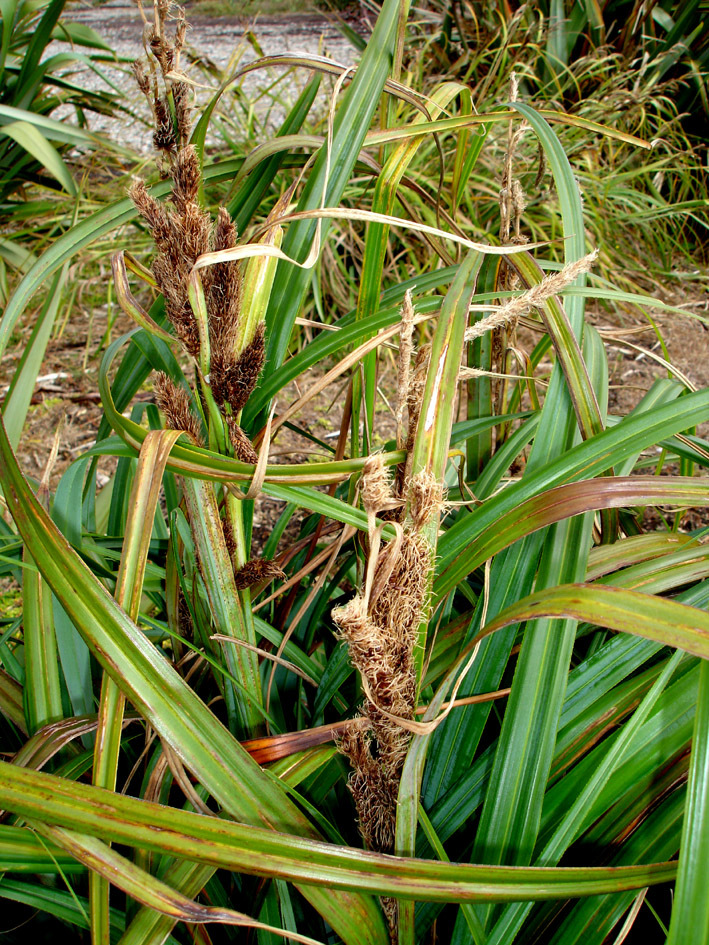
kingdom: Plantae
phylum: Tracheophyta
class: Liliopsida
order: Poales
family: Cyperaceae
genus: Carex
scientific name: Carex trifida
